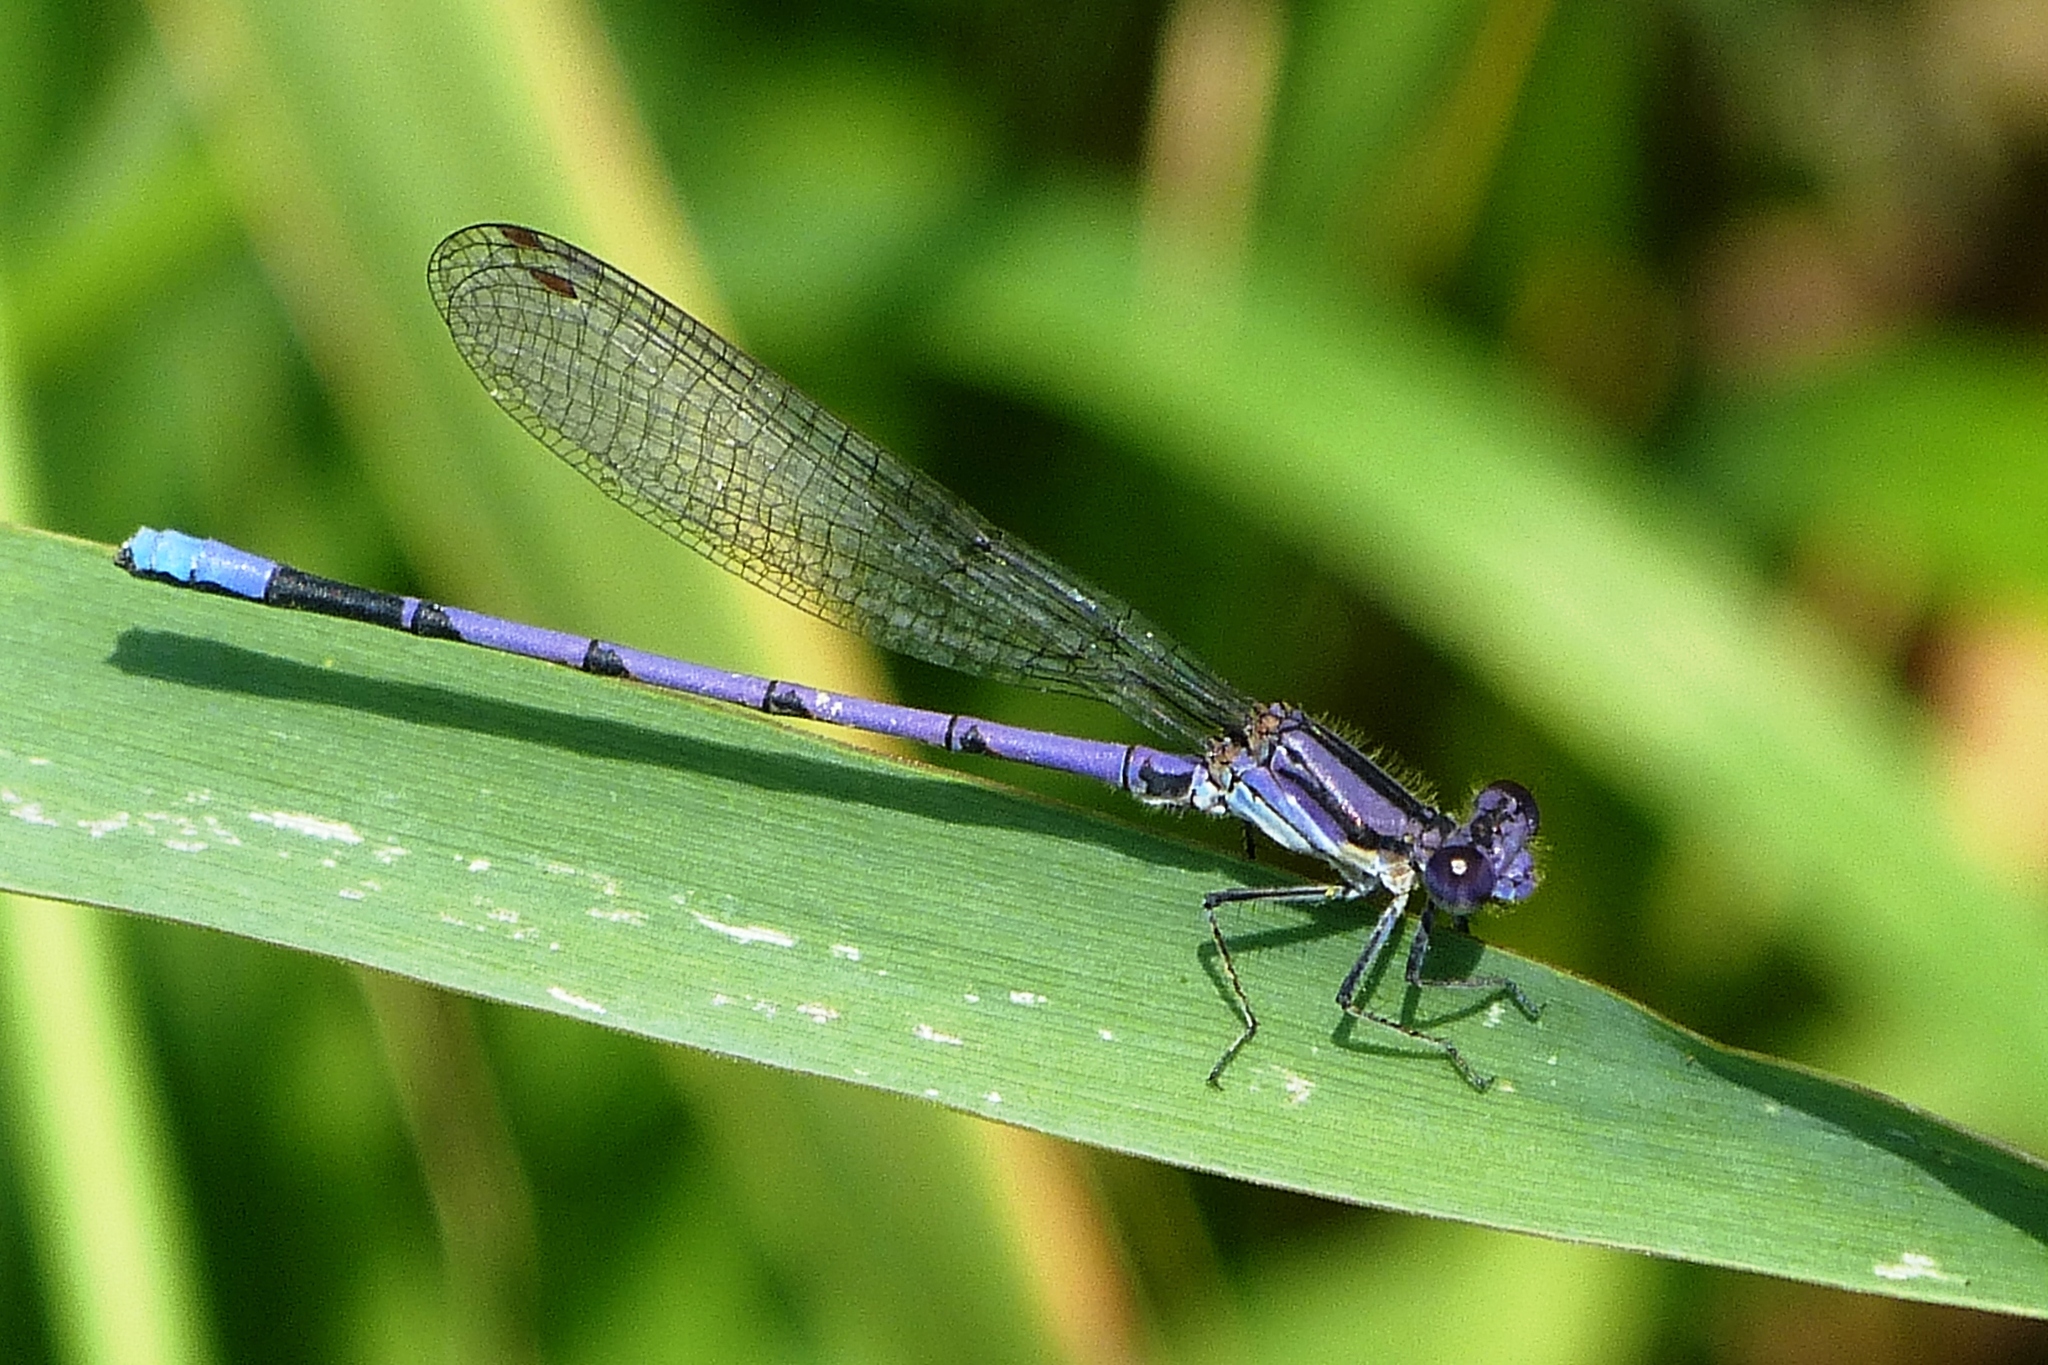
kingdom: Animalia
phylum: Arthropoda
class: Insecta
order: Odonata
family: Coenagrionidae
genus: Argia
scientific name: Argia fumipennis
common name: Variable dancer
